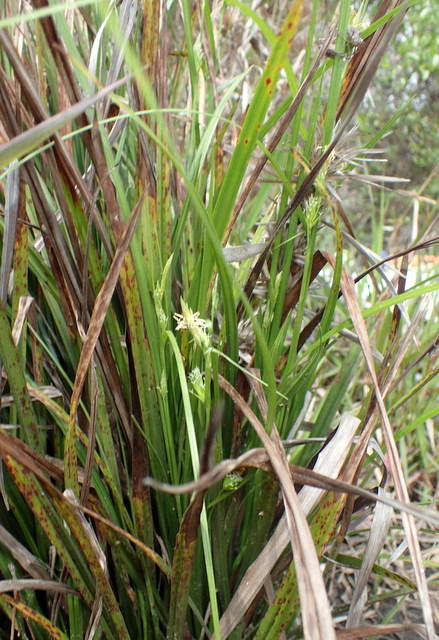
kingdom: Plantae
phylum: Tracheophyta
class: Liliopsida
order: Poales
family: Cyperaceae
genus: Carex
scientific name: Carex lonchocarpa
